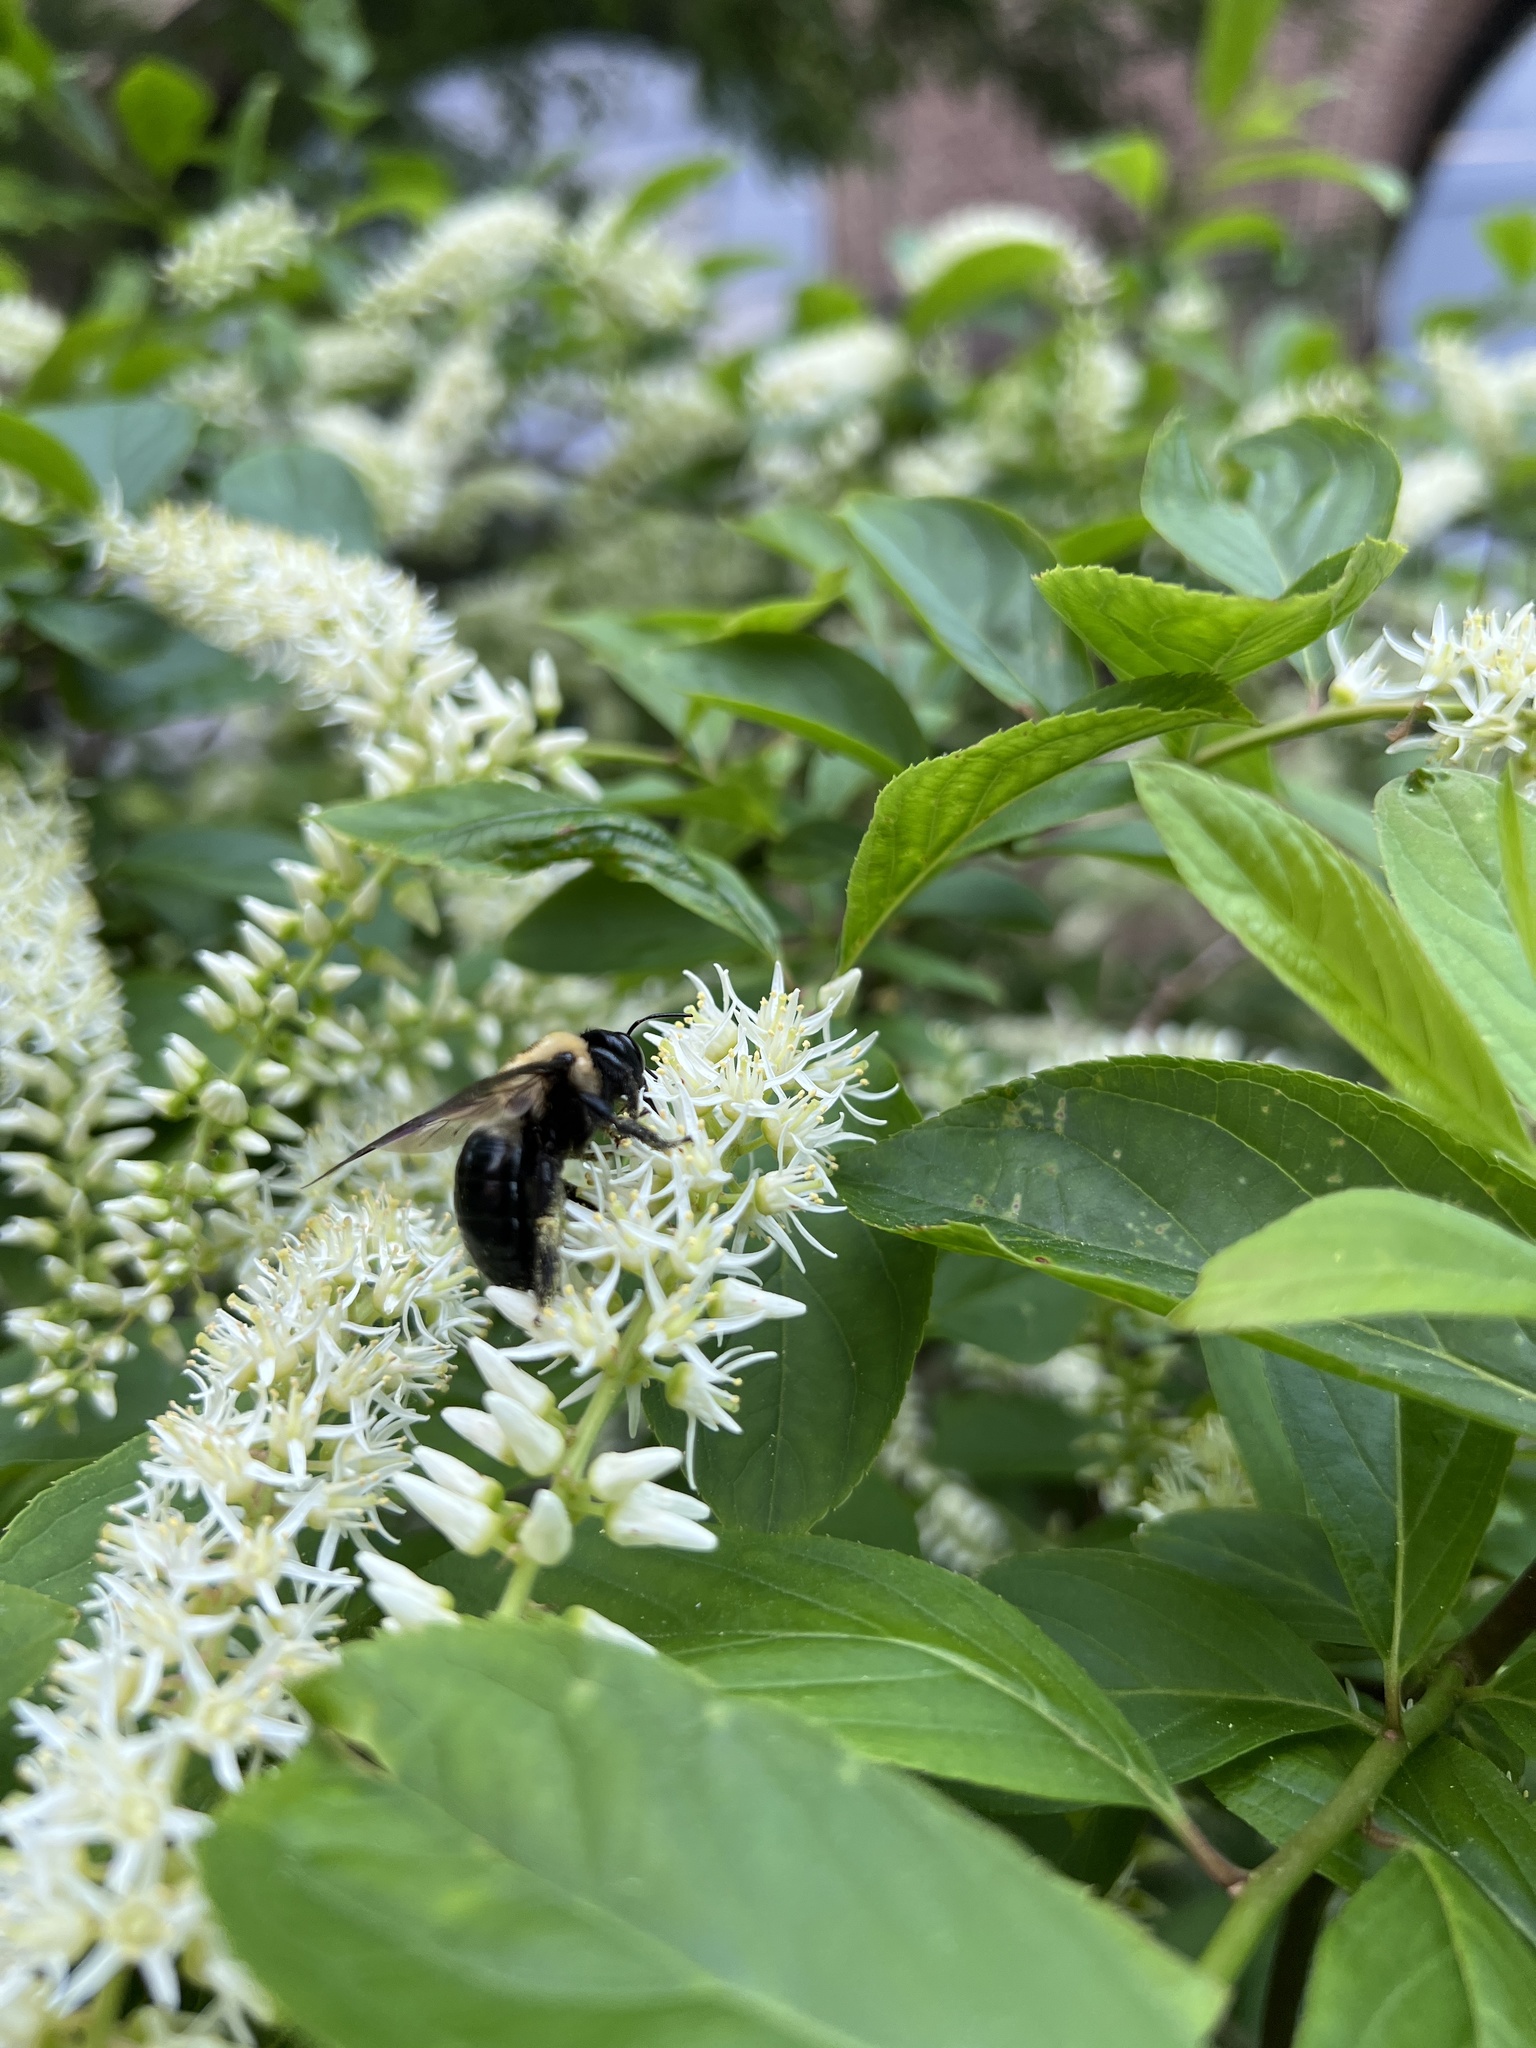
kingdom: Animalia
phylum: Arthropoda
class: Insecta
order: Hymenoptera
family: Apidae
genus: Xylocopa
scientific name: Xylocopa virginica
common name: Carpenter bee
